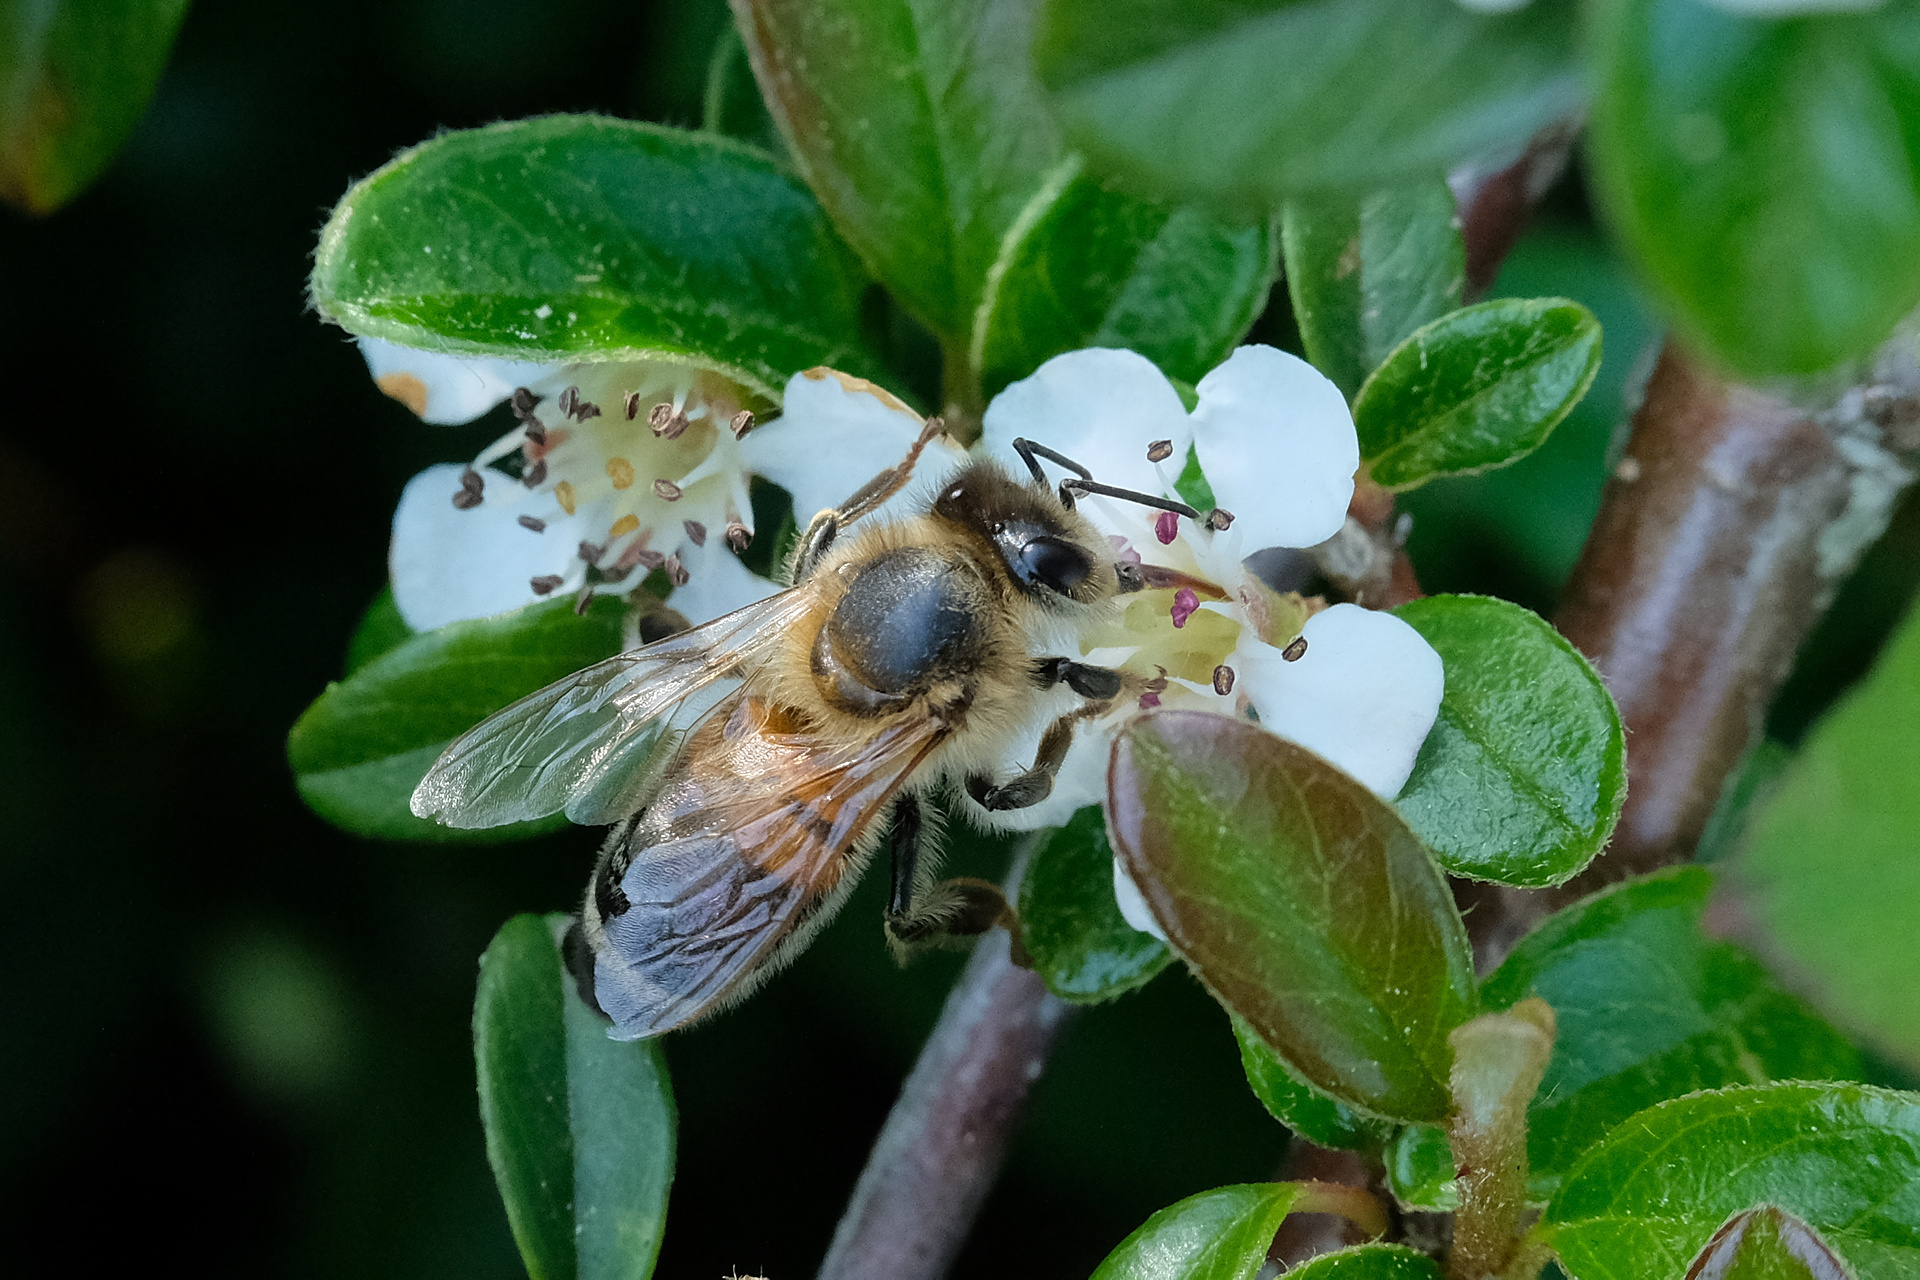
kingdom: Animalia
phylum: Arthropoda
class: Insecta
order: Hymenoptera
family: Apidae
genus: Apis
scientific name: Apis mellifera
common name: Honey bee
